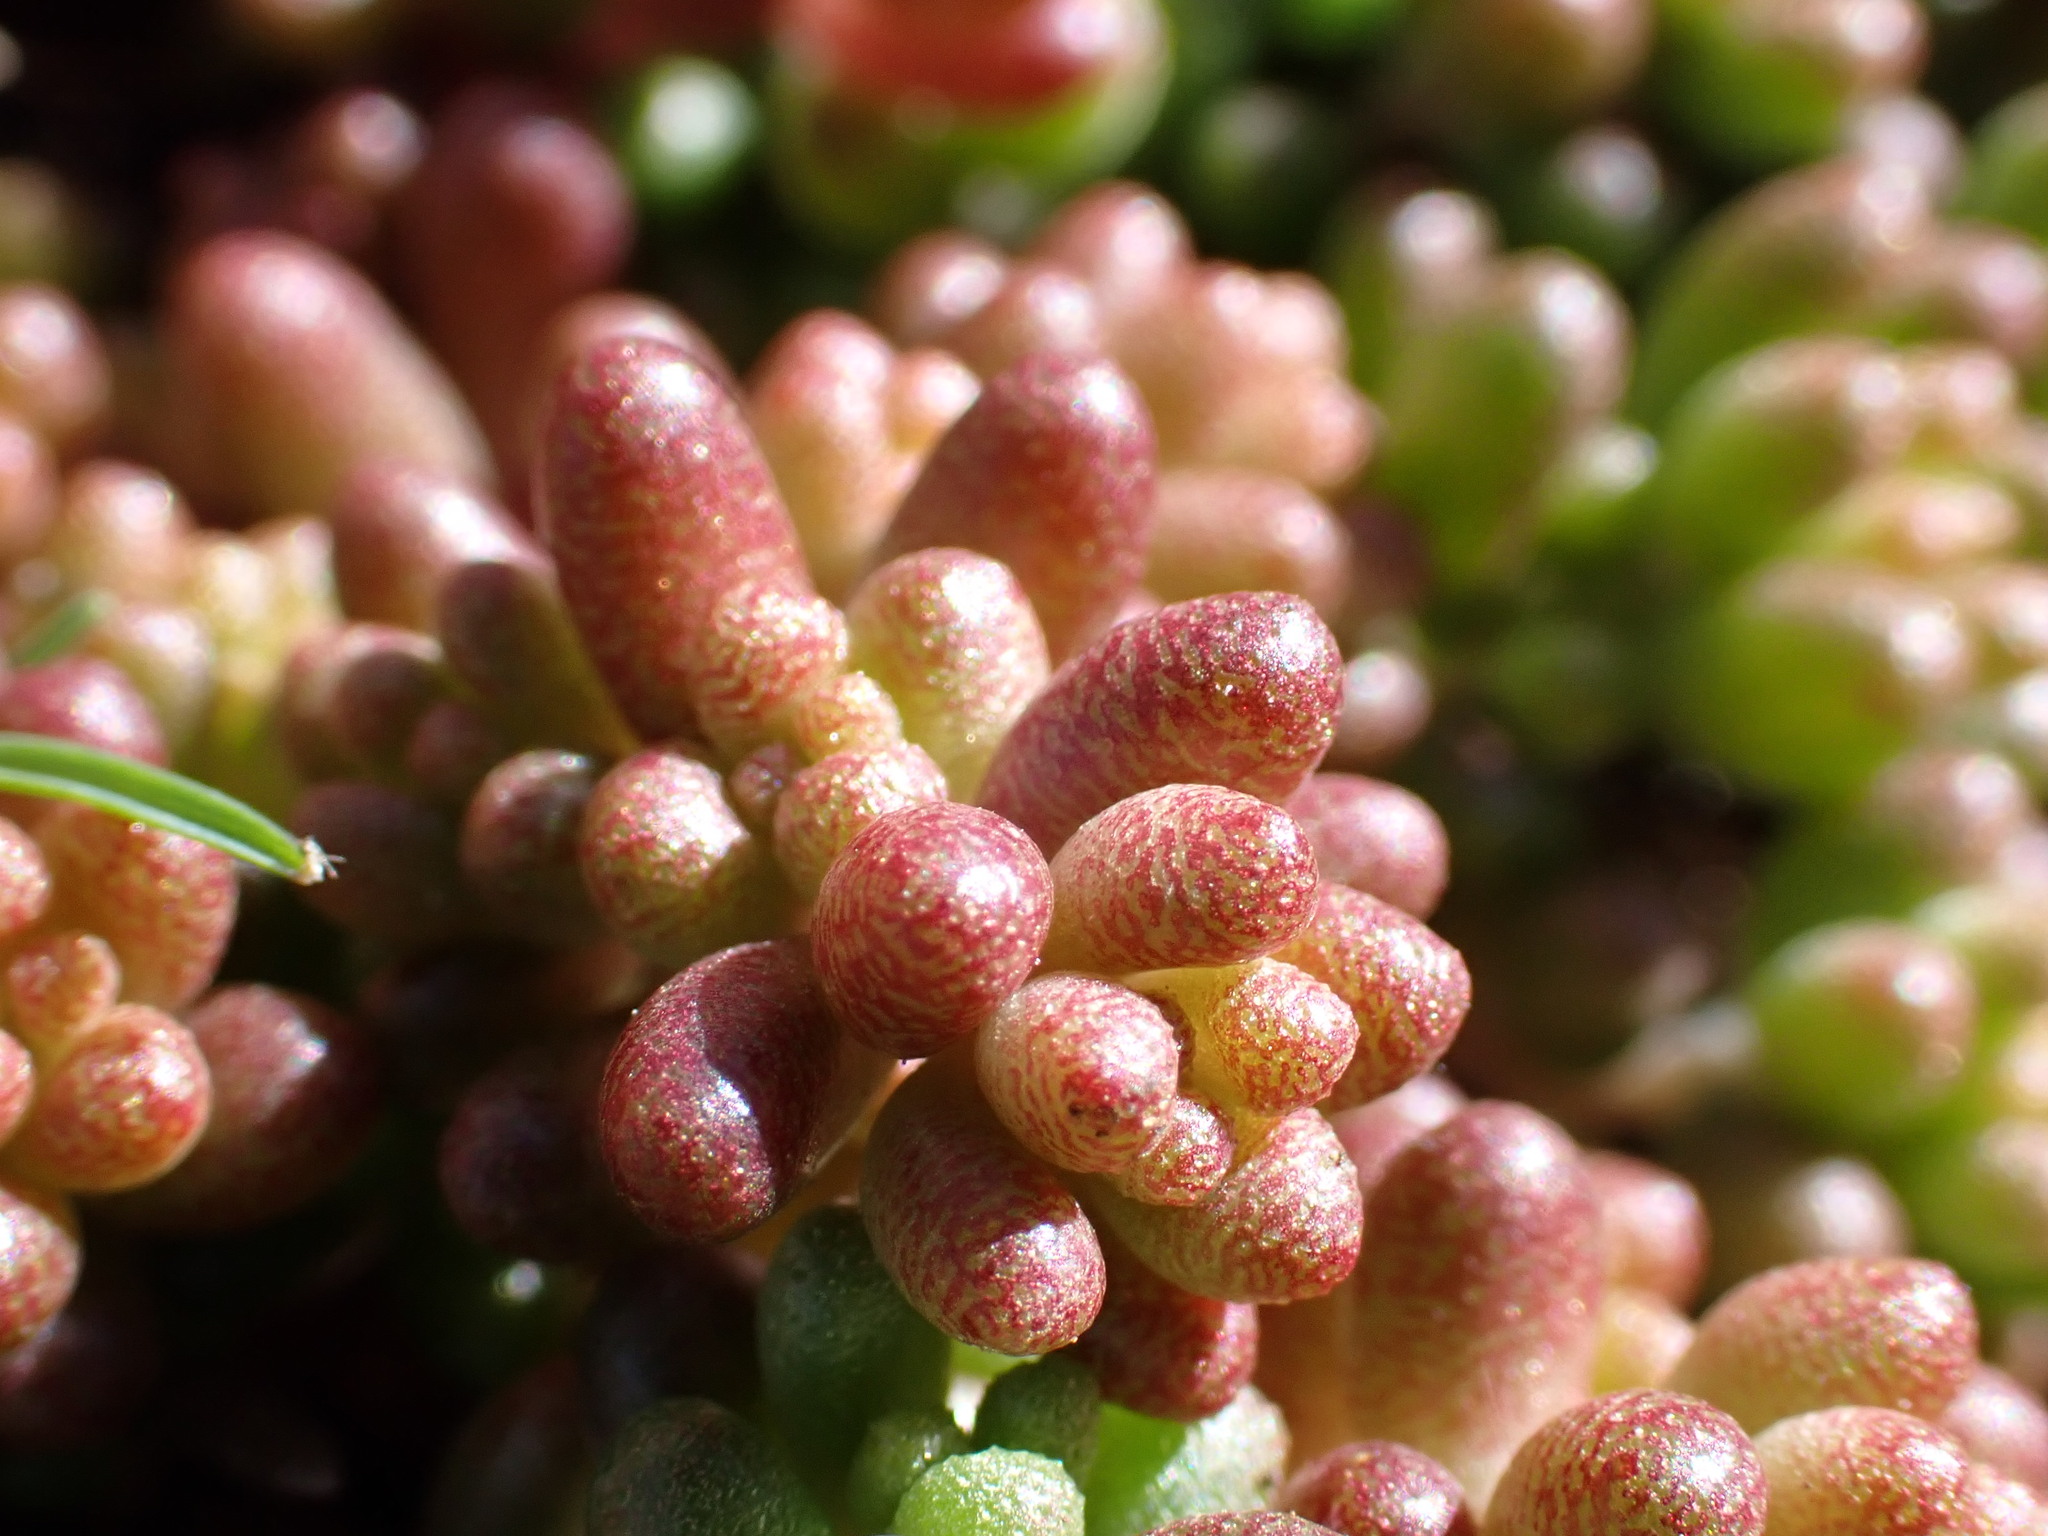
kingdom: Plantae
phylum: Tracheophyta
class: Magnoliopsida
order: Saxifragales
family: Crassulaceae
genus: Sedum
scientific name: Sedum album
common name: White stonecrop
